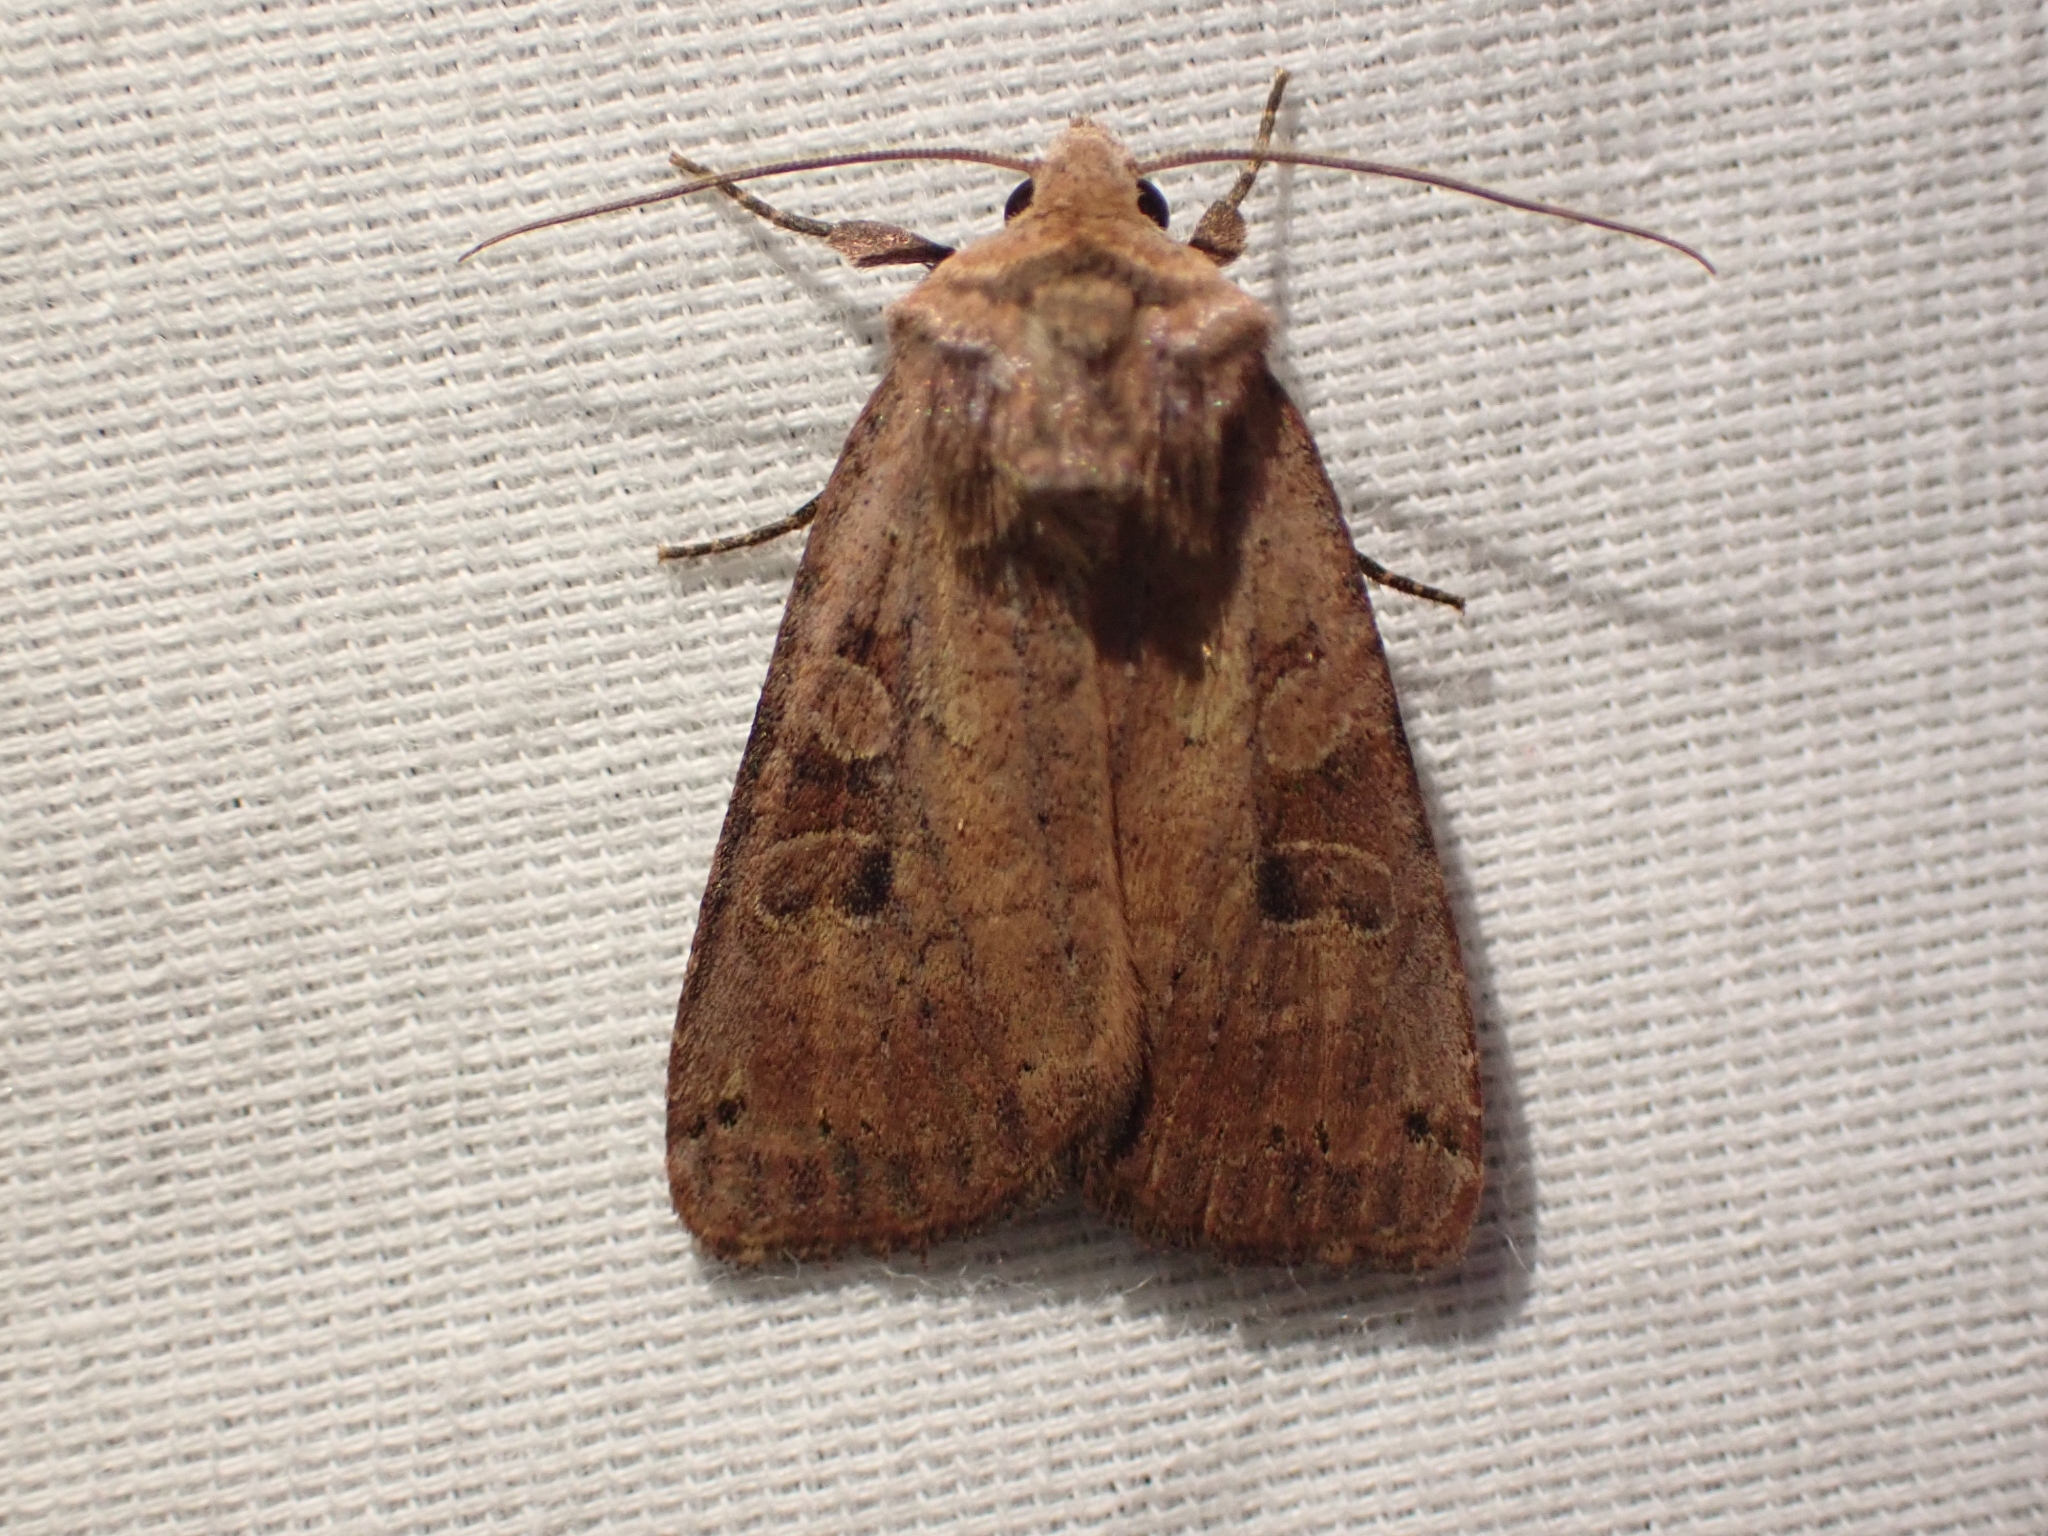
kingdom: Animalia
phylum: Arthropoda
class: Insecta
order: Lepidoptera
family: Noctuidae
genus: Xestia
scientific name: Xestia smithii
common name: Smith's dart
